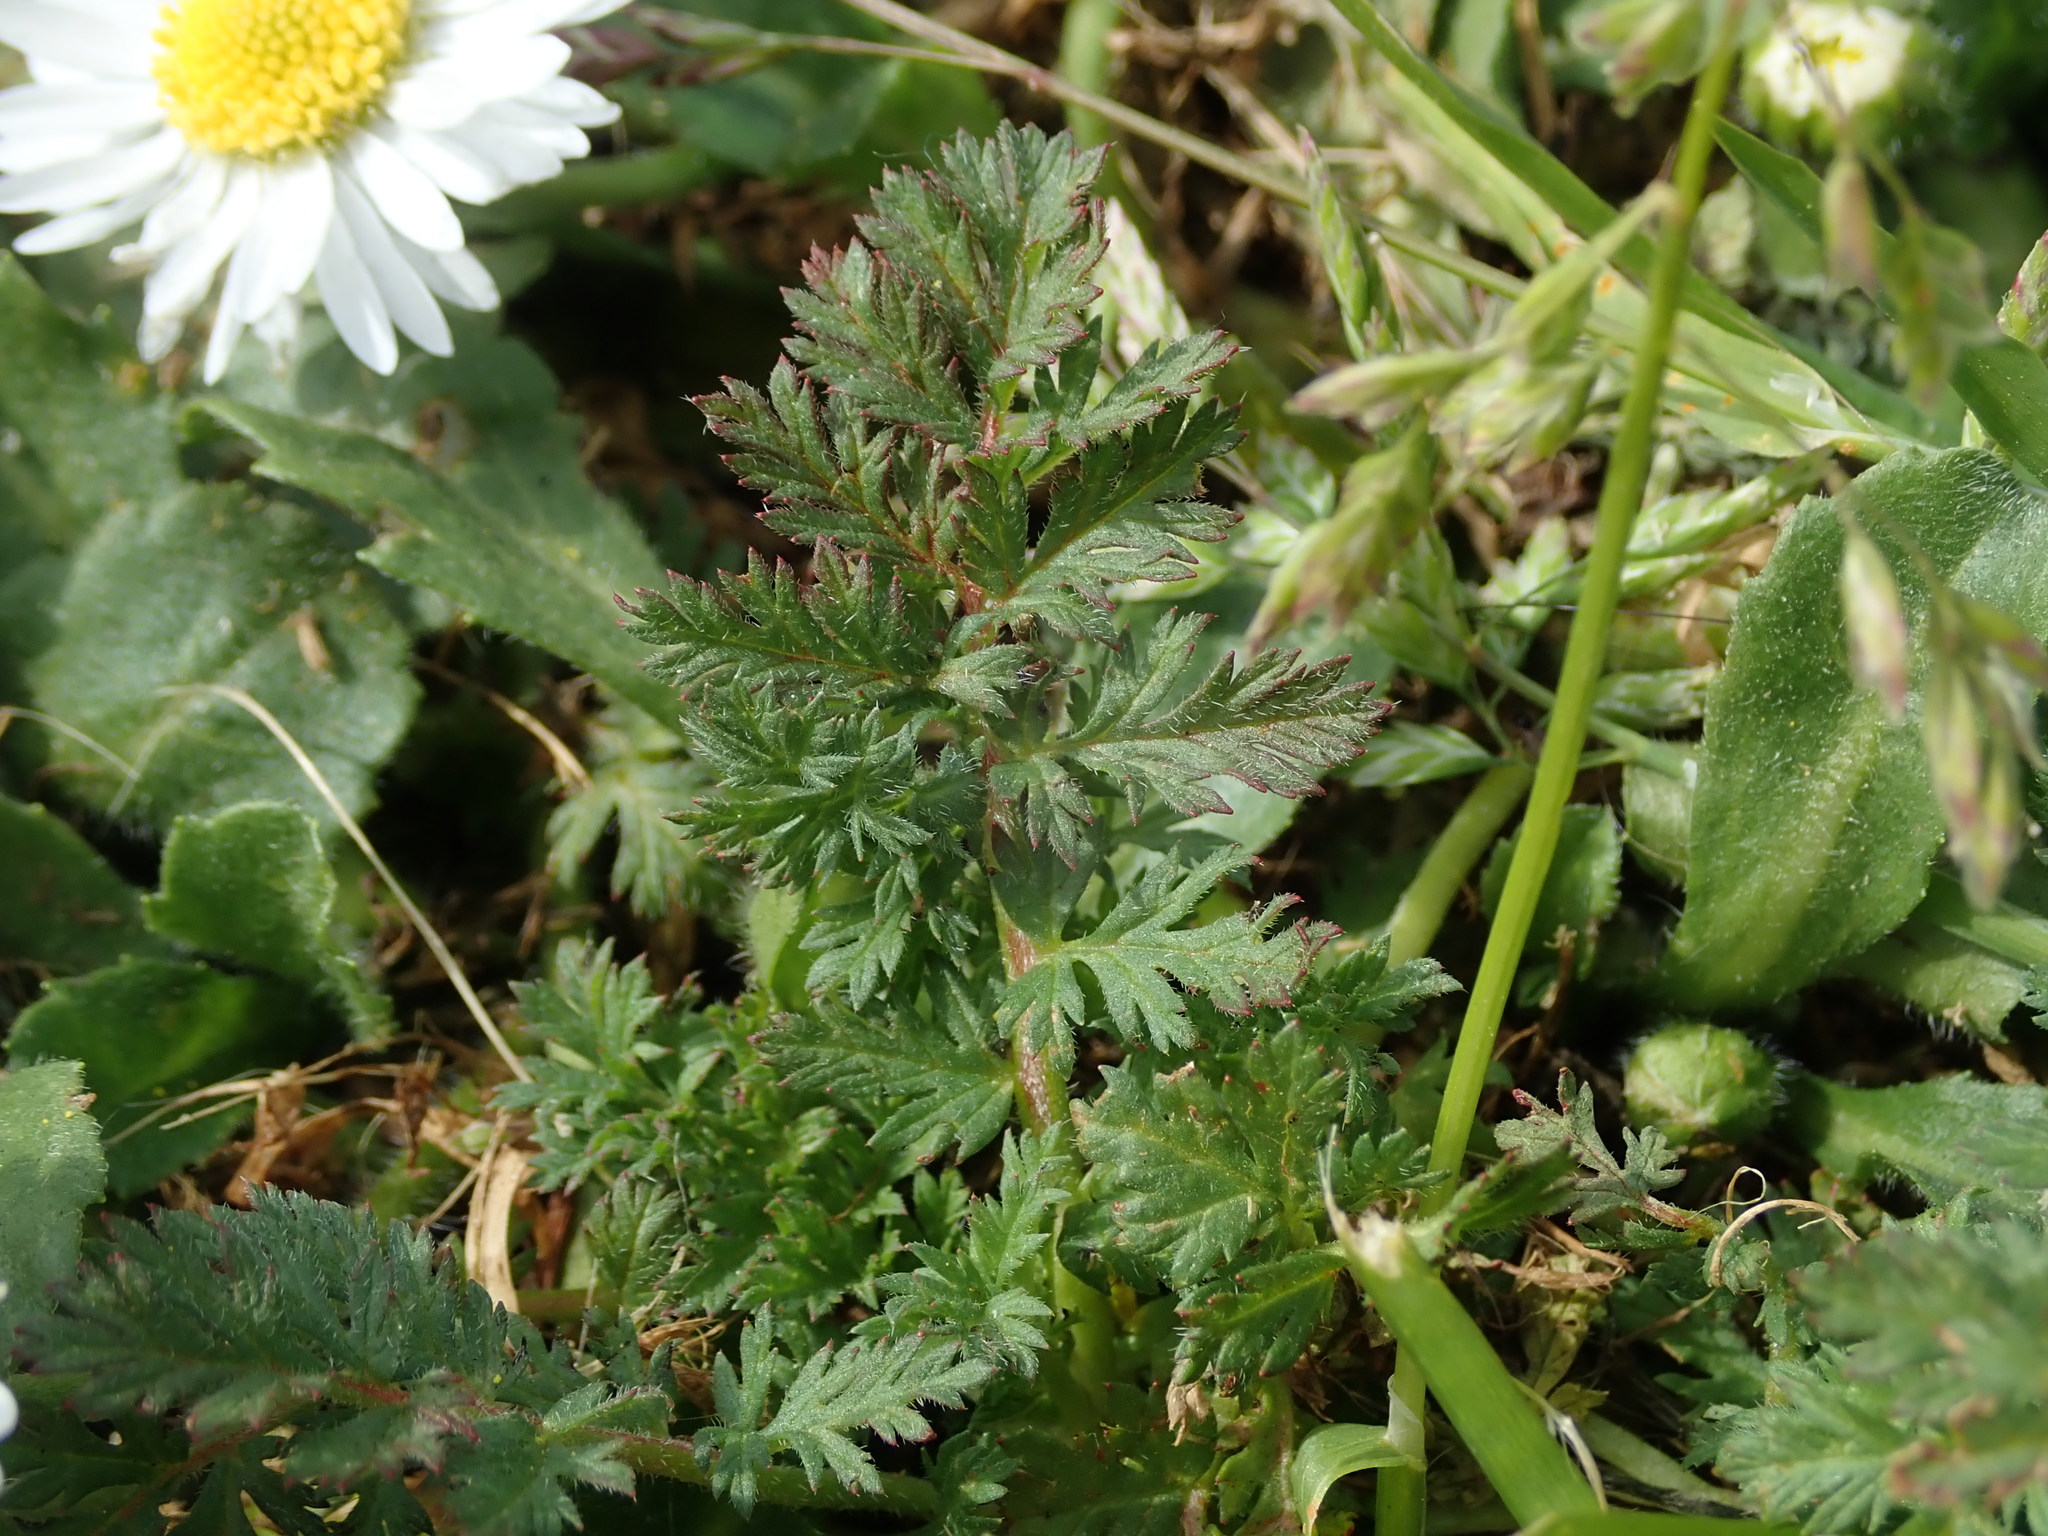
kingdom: Plantae
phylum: Tracheophyta
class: Magnoliopsida
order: Geraniales
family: Geraniaceae
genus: Erodium
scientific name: Erodium cicutarium
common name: Common stork's-bill
